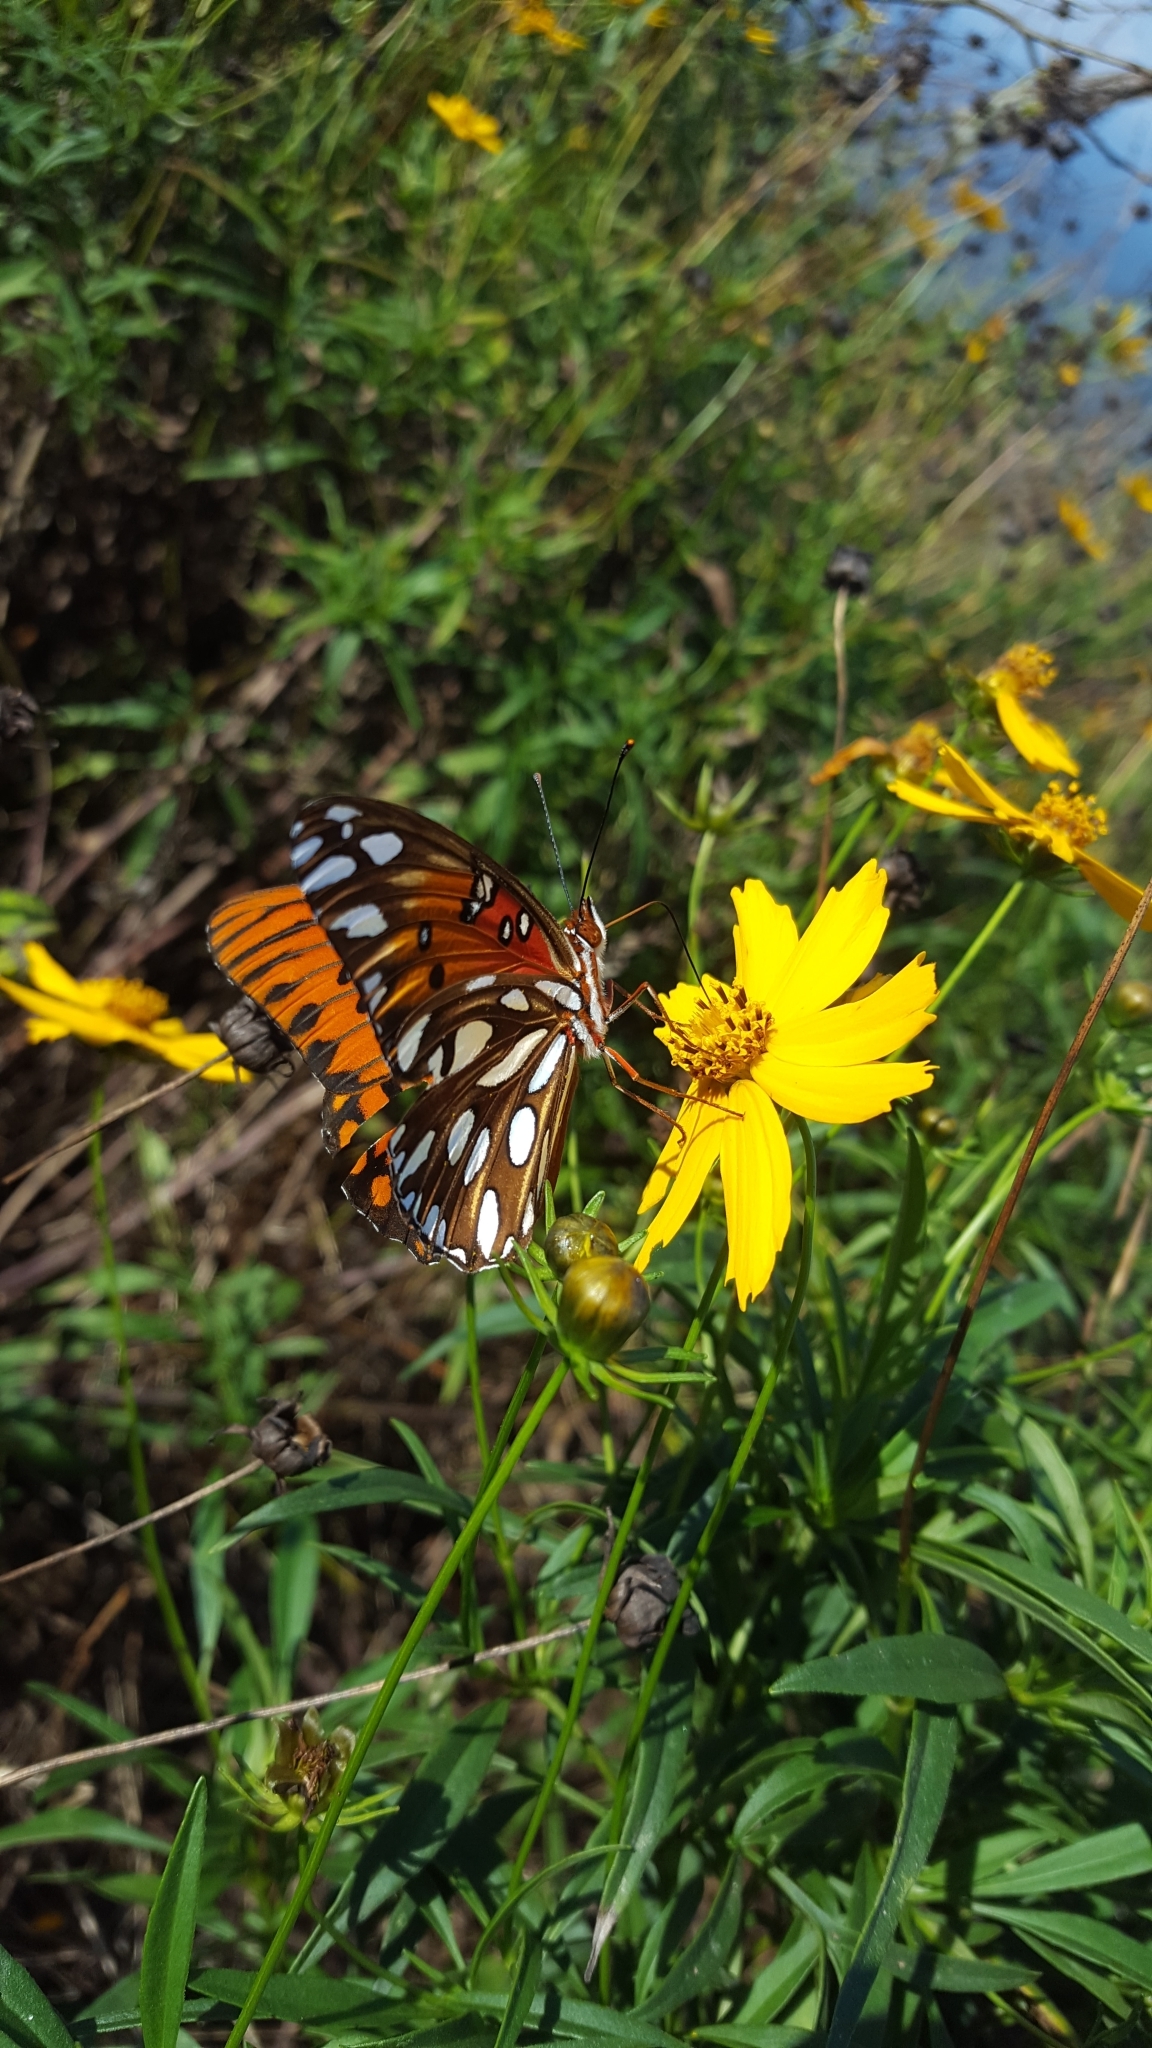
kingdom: Animalia
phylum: Arthropoda
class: Insecta
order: Lepidoptera
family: Nymphalidae
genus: Dione
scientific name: Dione vanillae
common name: Gulf fritillary
